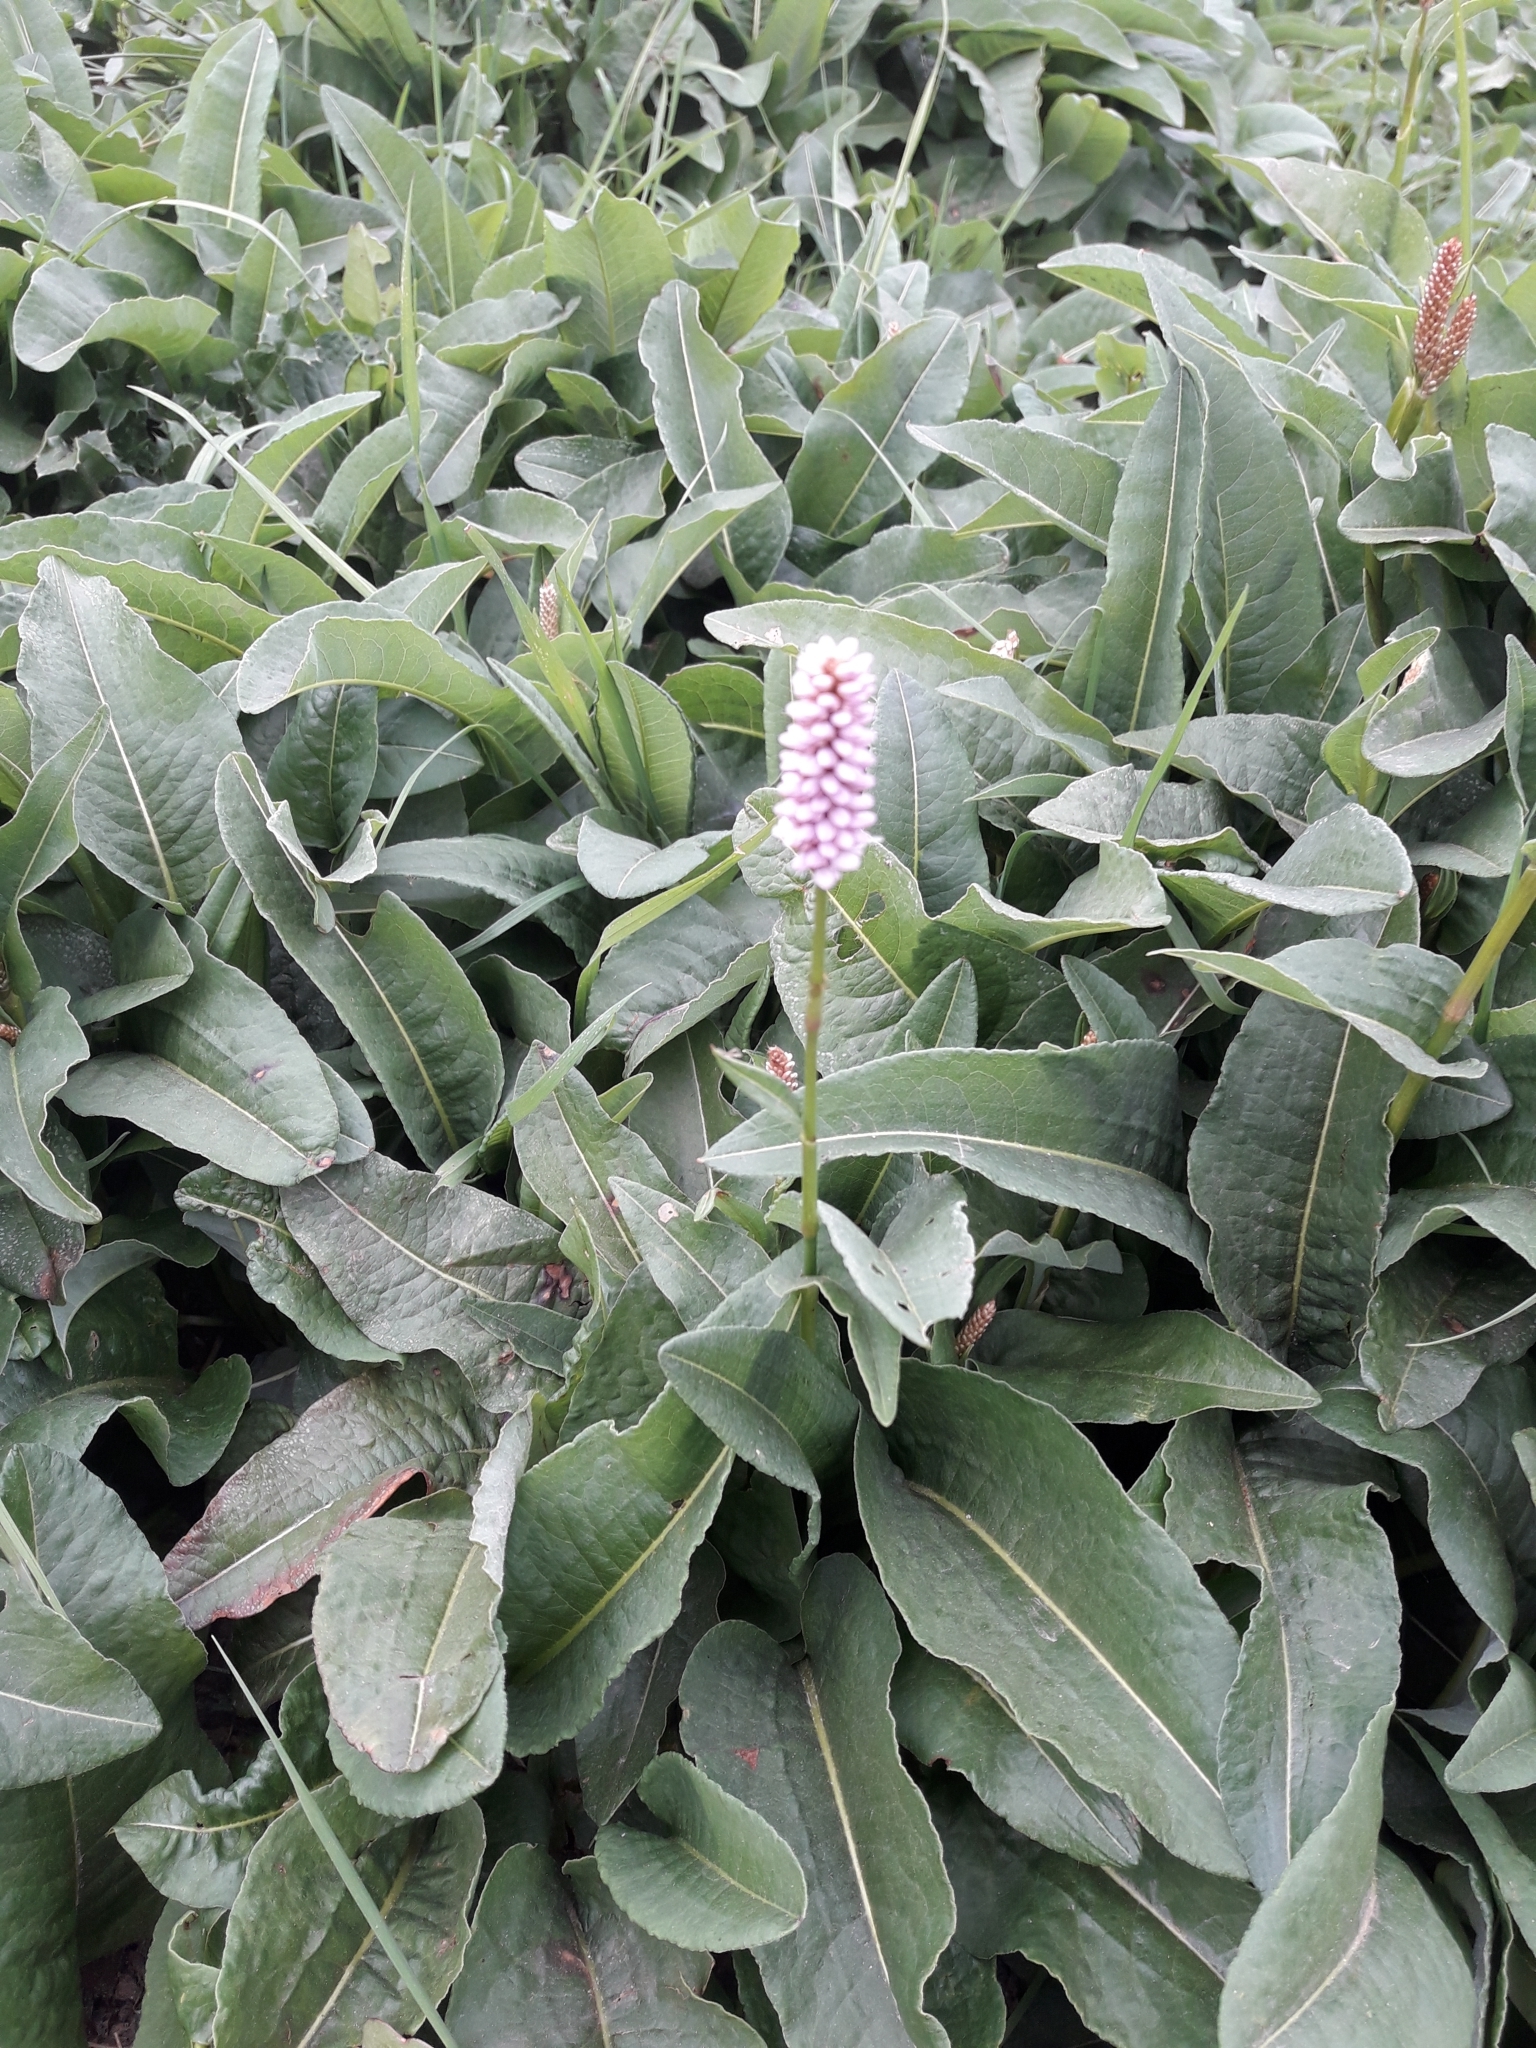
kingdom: Plantae
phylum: Tracheophyta
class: Magnoliopsida
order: Caryophyllales
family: Polygonaceae
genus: Bistorta
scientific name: Bistorta officinalis
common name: Common bistort
